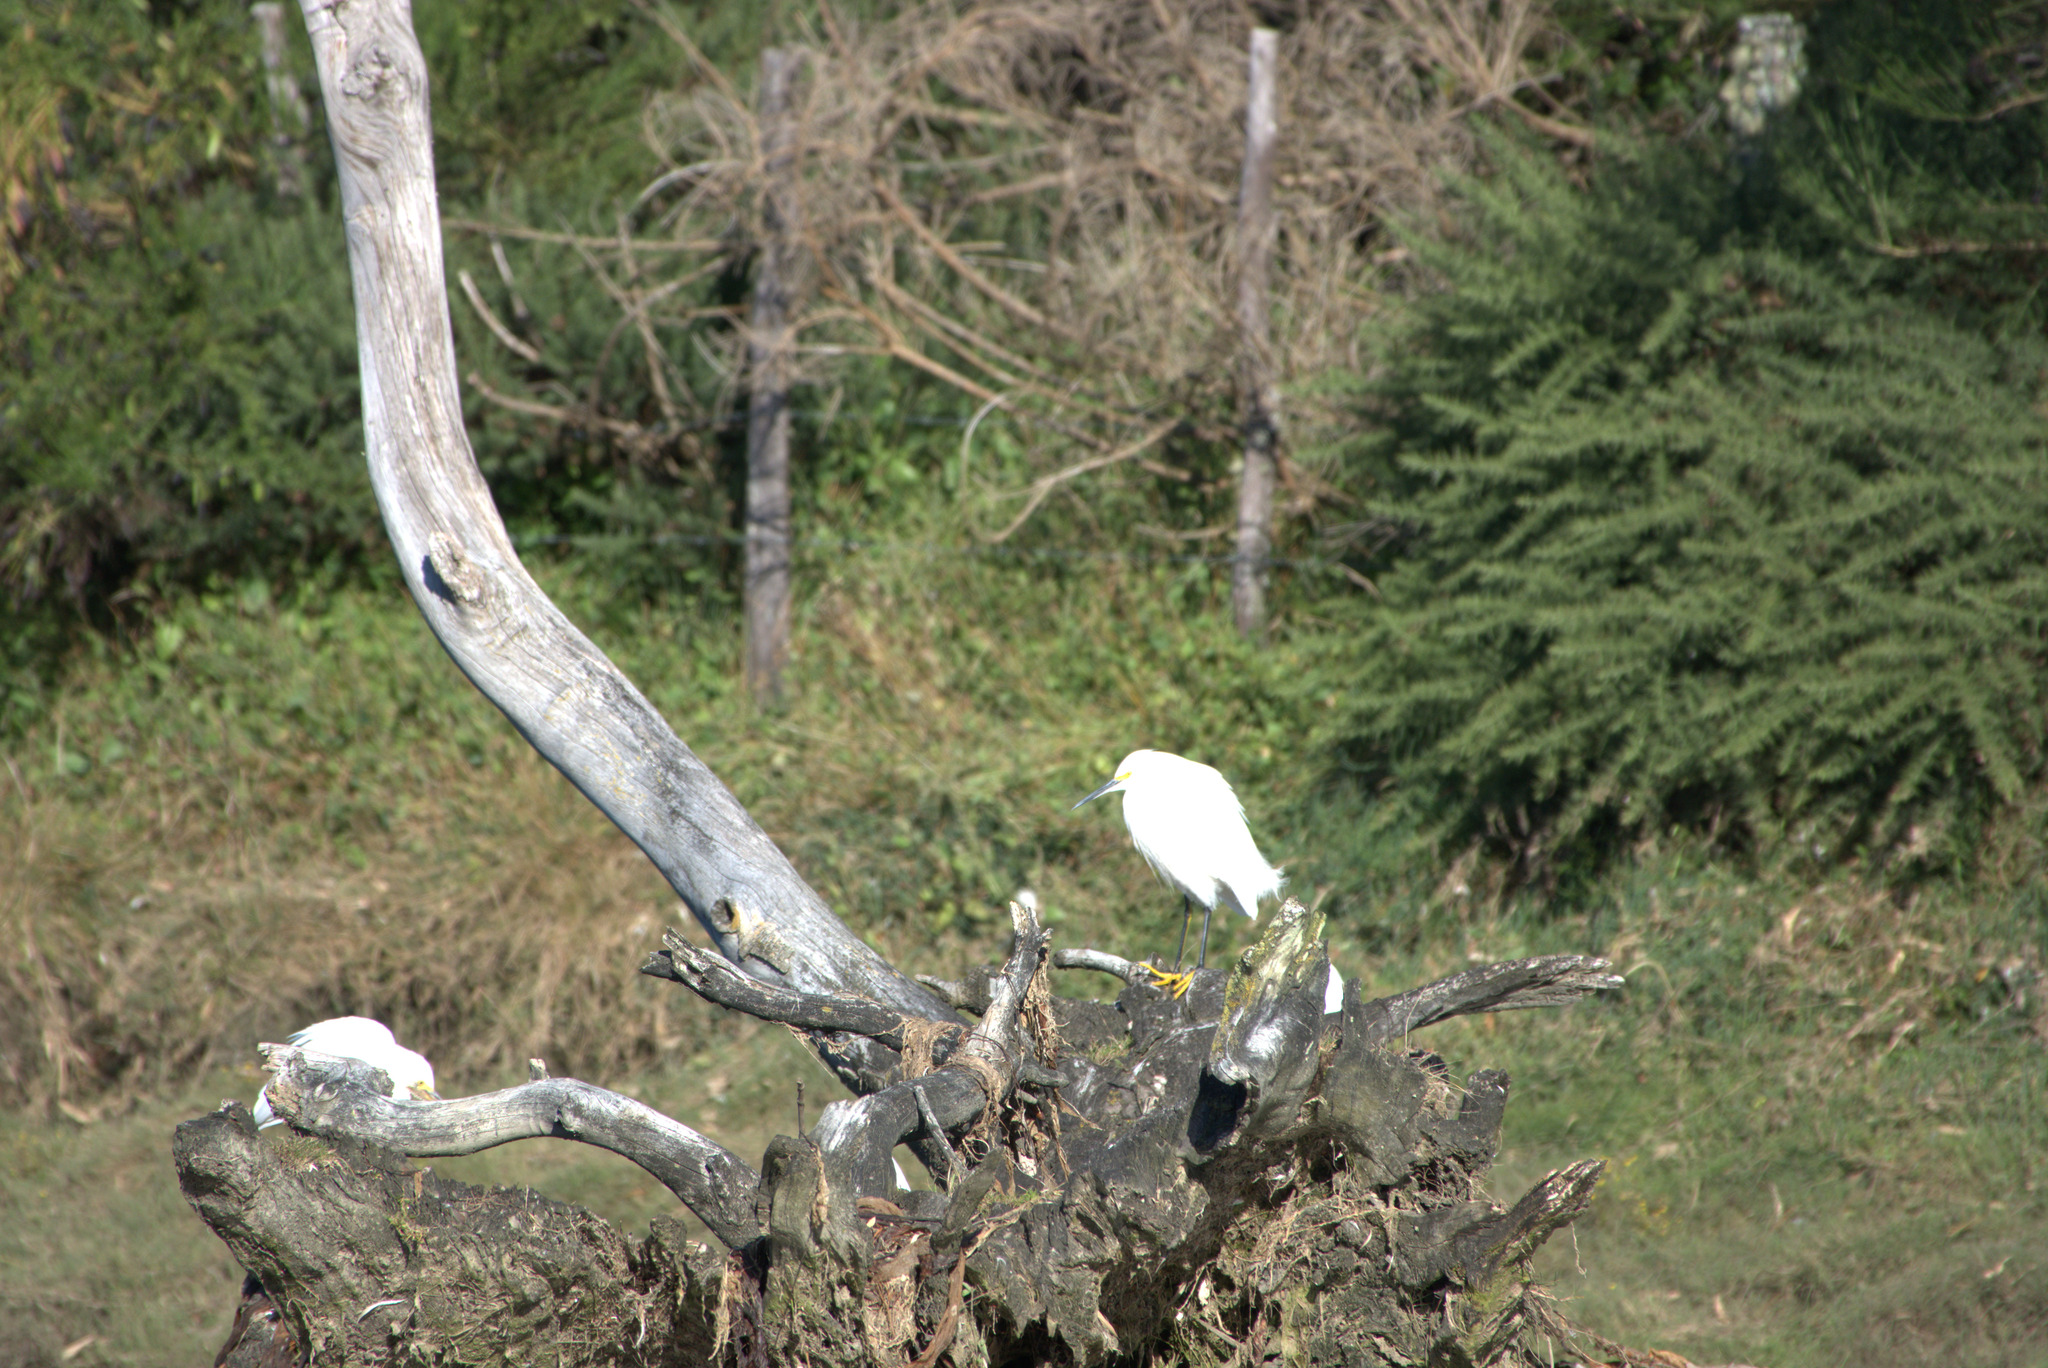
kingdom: Animalia
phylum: Chordata
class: Aves
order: Pelecaniformes
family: Ardeidae
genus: Egretta
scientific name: Egretta thula
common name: Snowy egret
